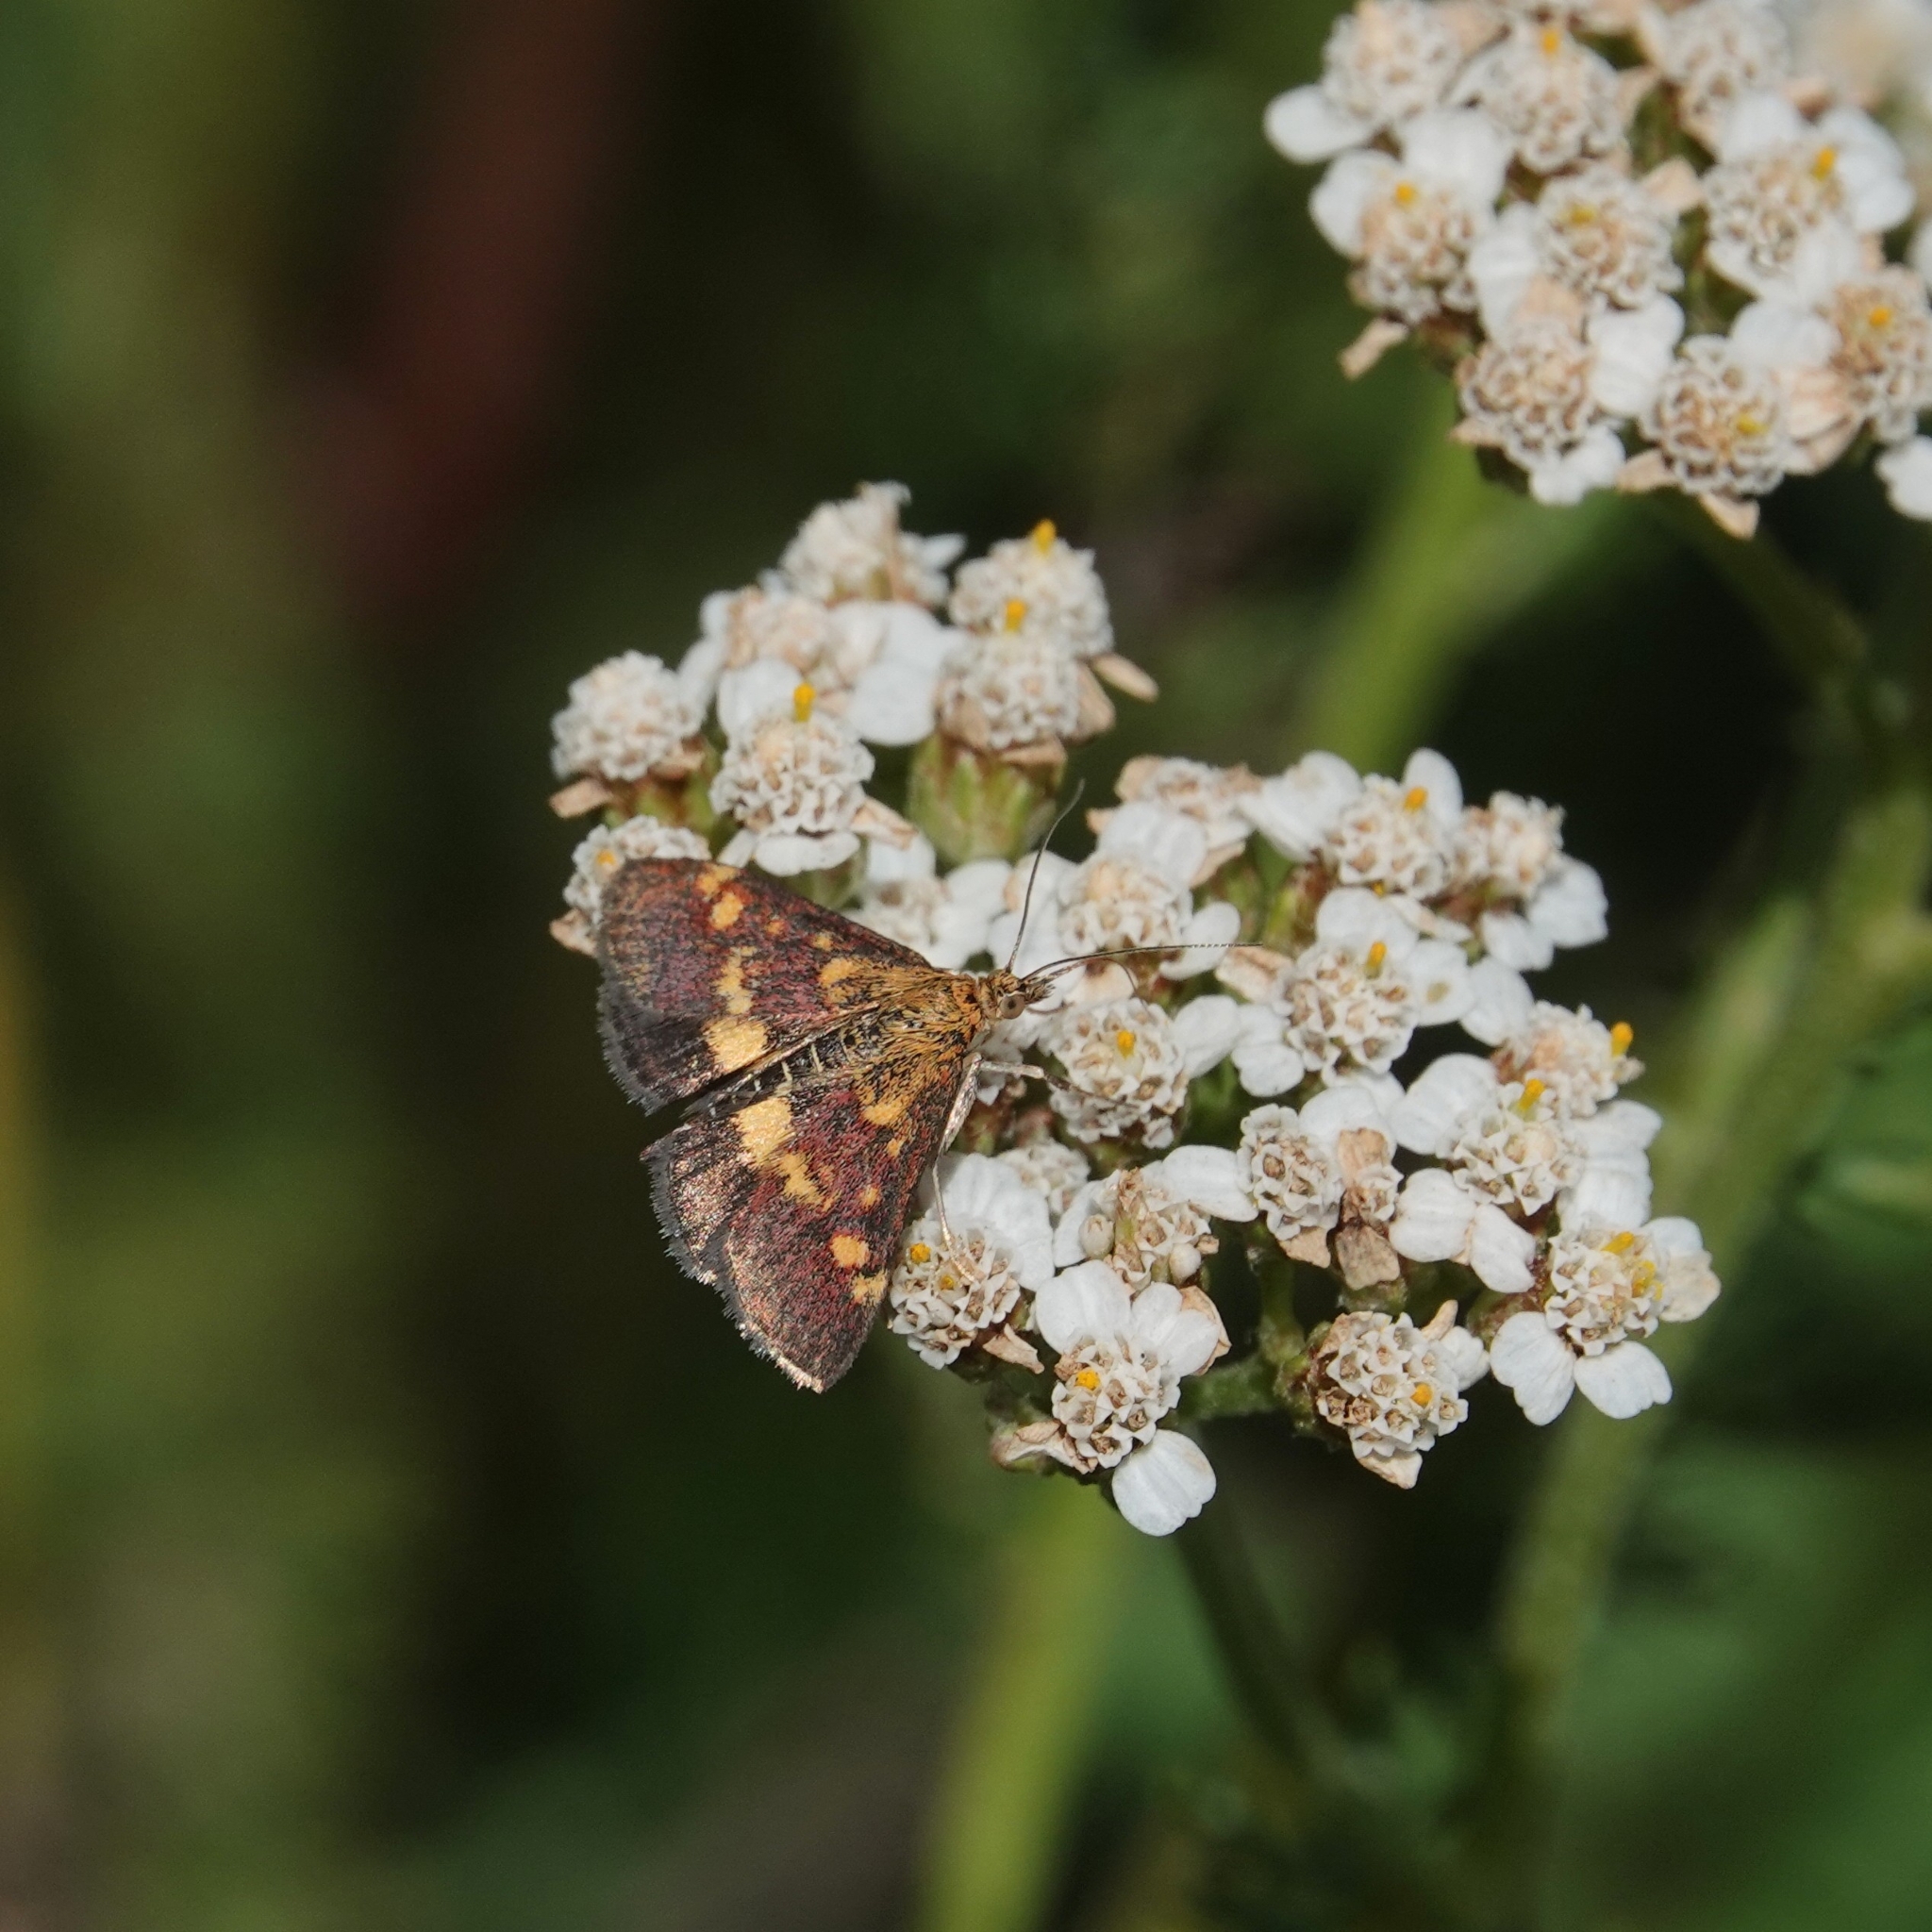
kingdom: Animalia
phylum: Arthropoda
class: Insecta
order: Lepidoptera
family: Crambidae
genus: Pyrausta
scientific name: Pyrausta aurata
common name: Small purple & gold
